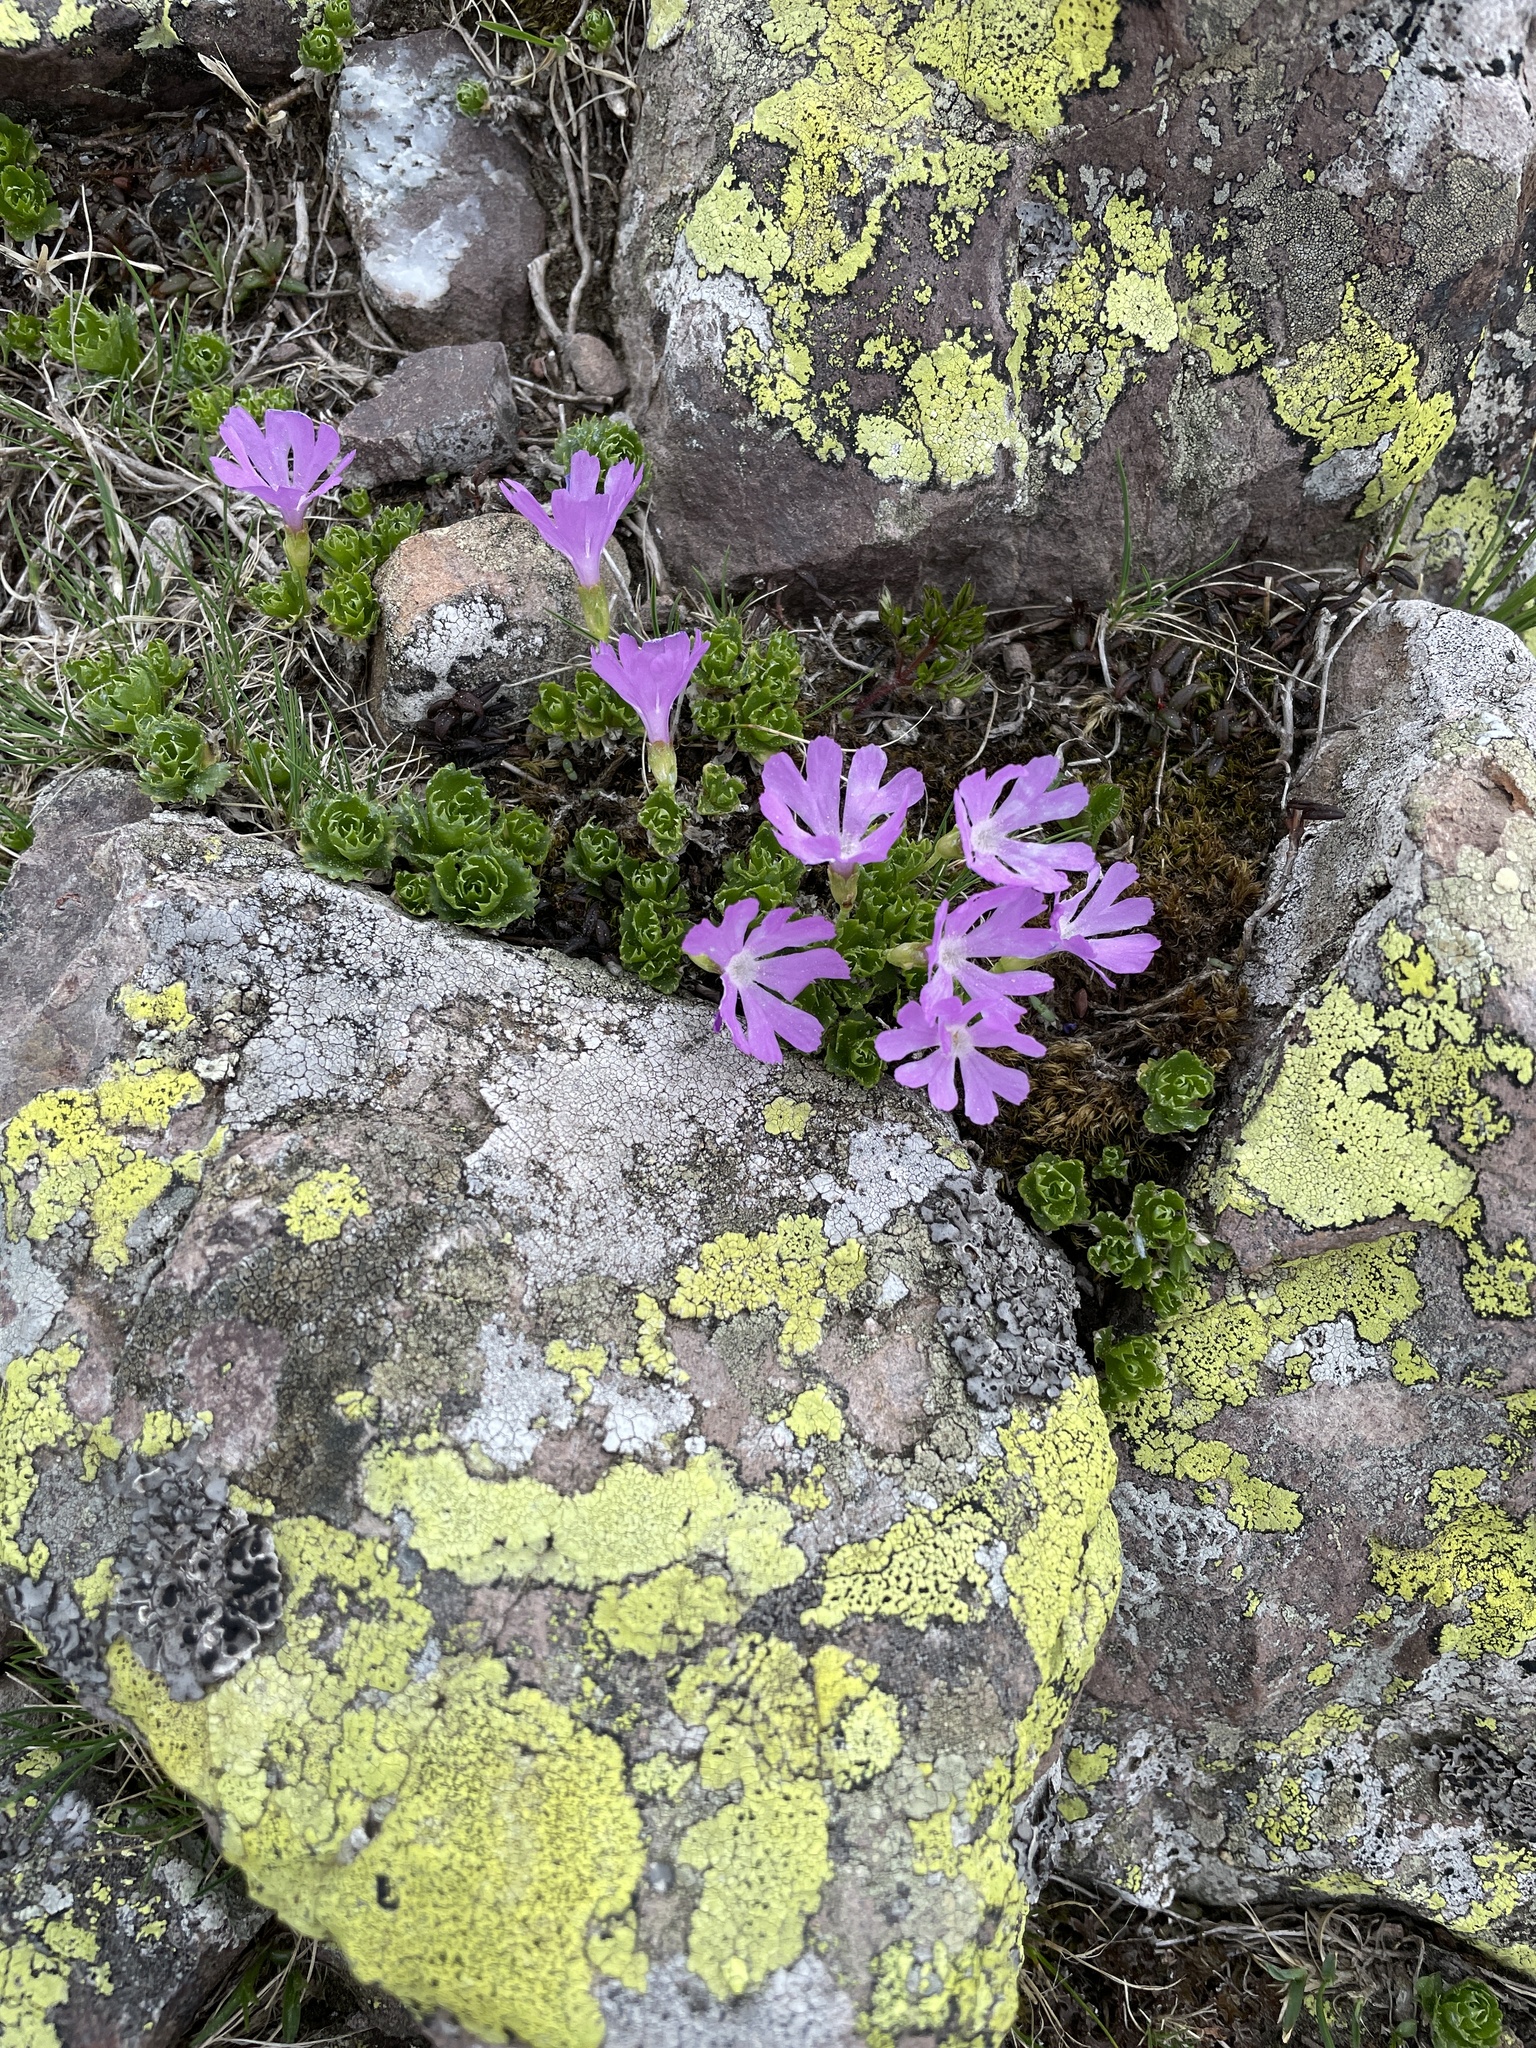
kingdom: Plantae
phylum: Tracheophyta
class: Magnoliopsida
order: Ericales
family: Primulaceae
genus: Primula
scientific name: Primula minima
